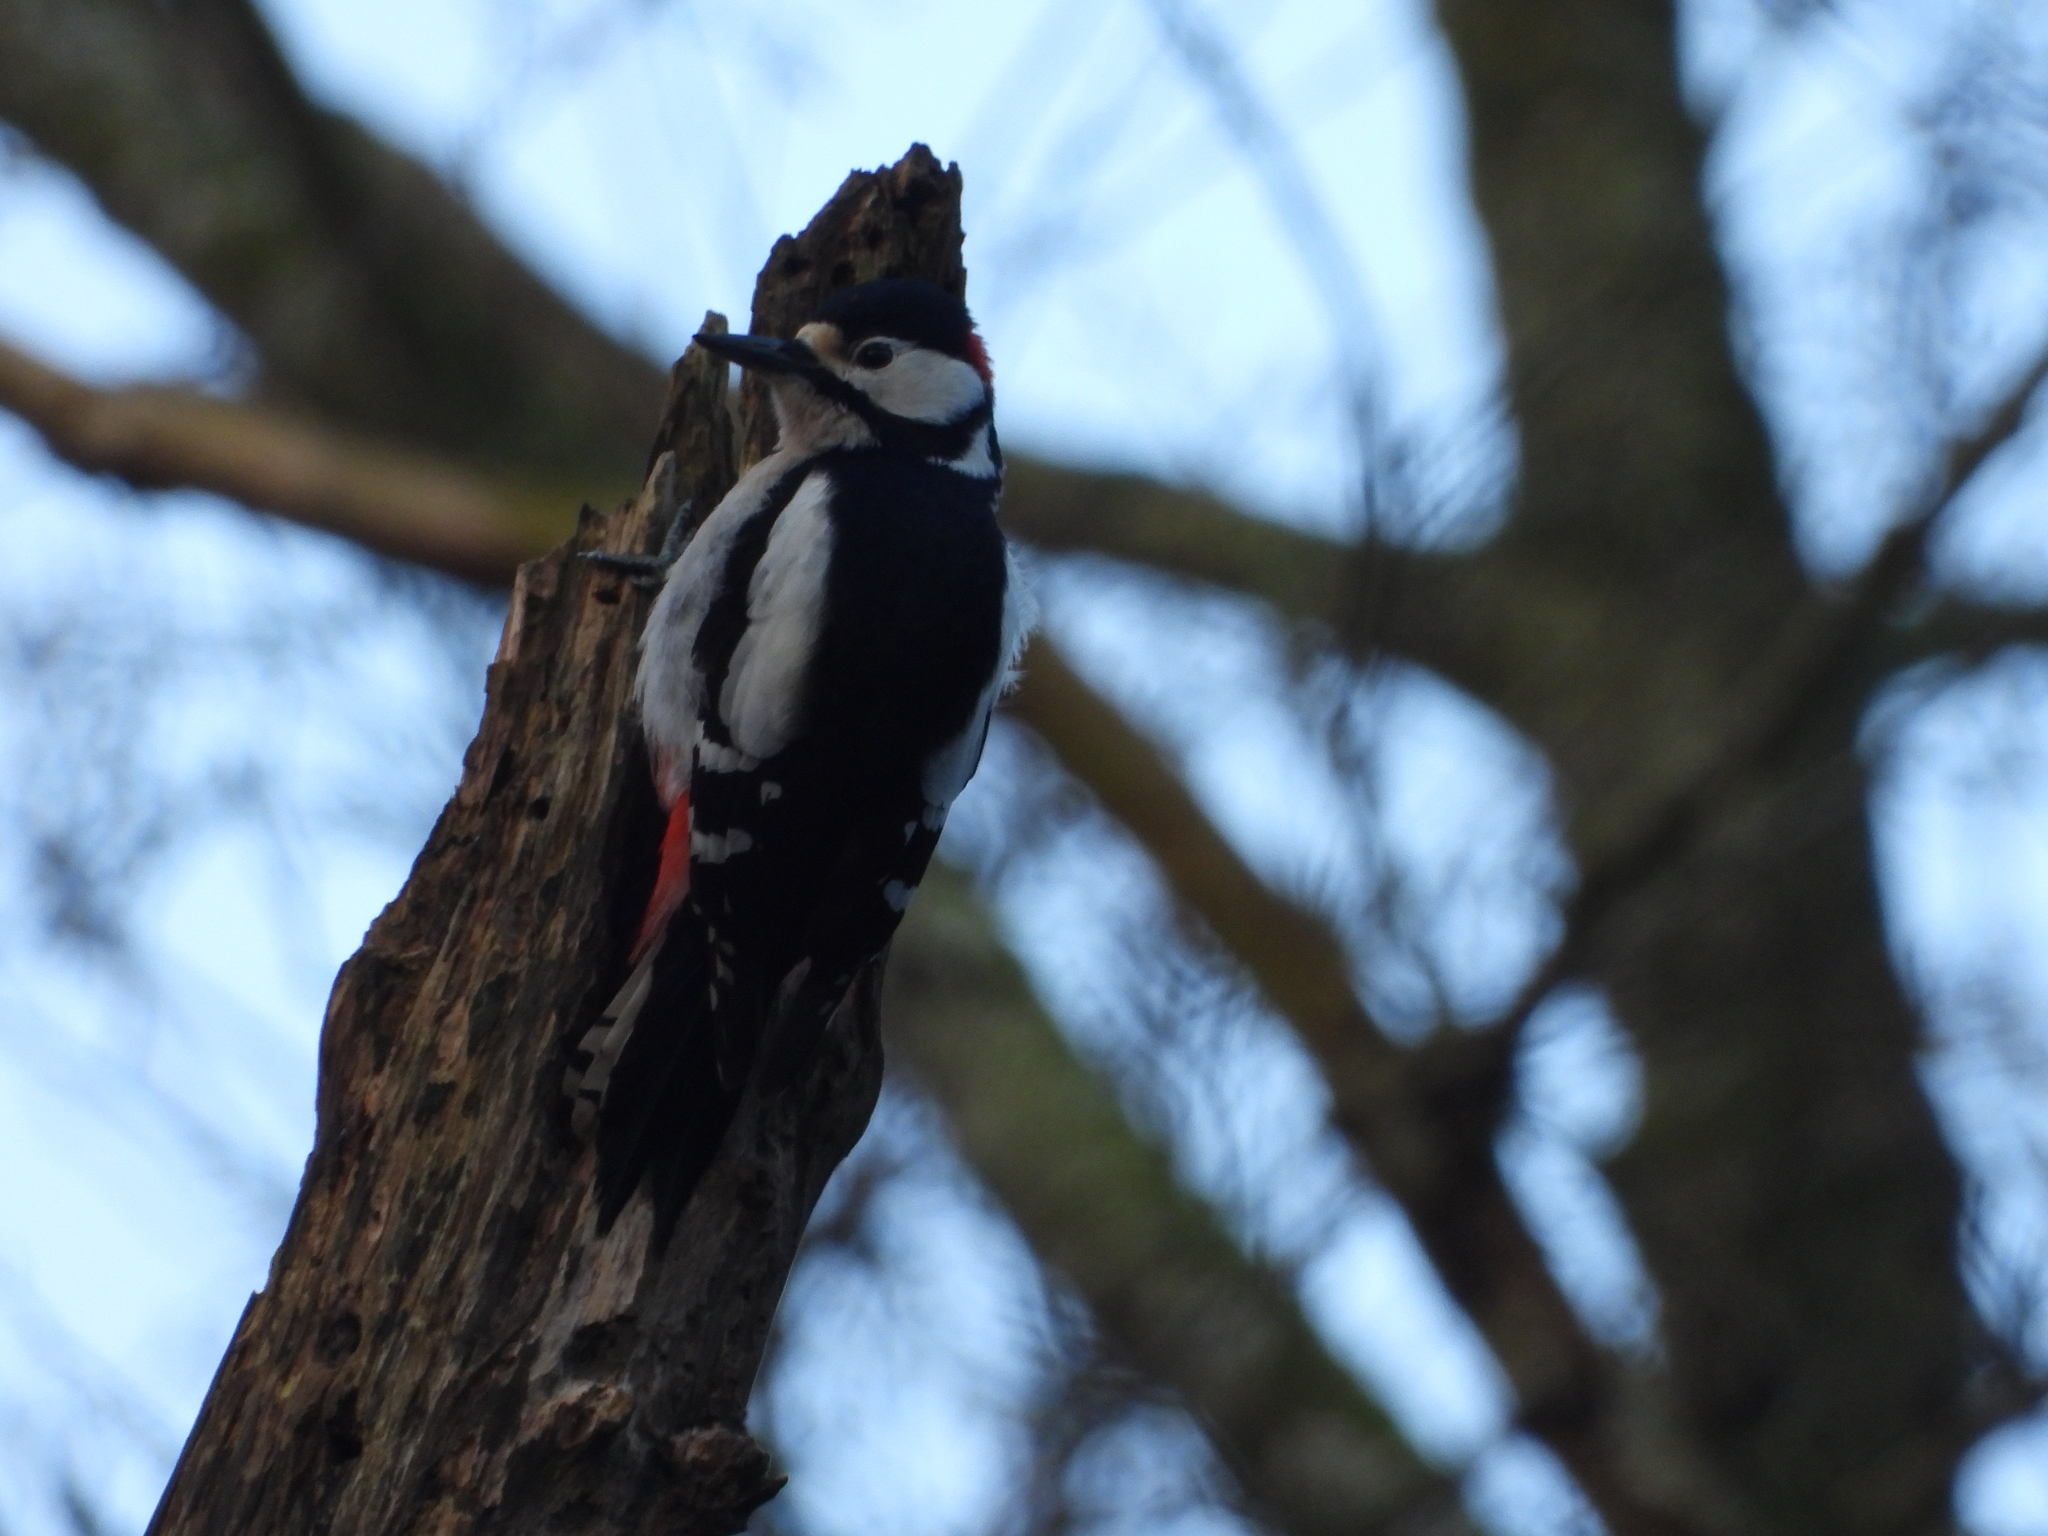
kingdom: Animalia
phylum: Chordata
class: Aves
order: Piciformes
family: Picidae
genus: Dendrocopos
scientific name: Dendrocopos major
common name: Great spotted woodpecker
